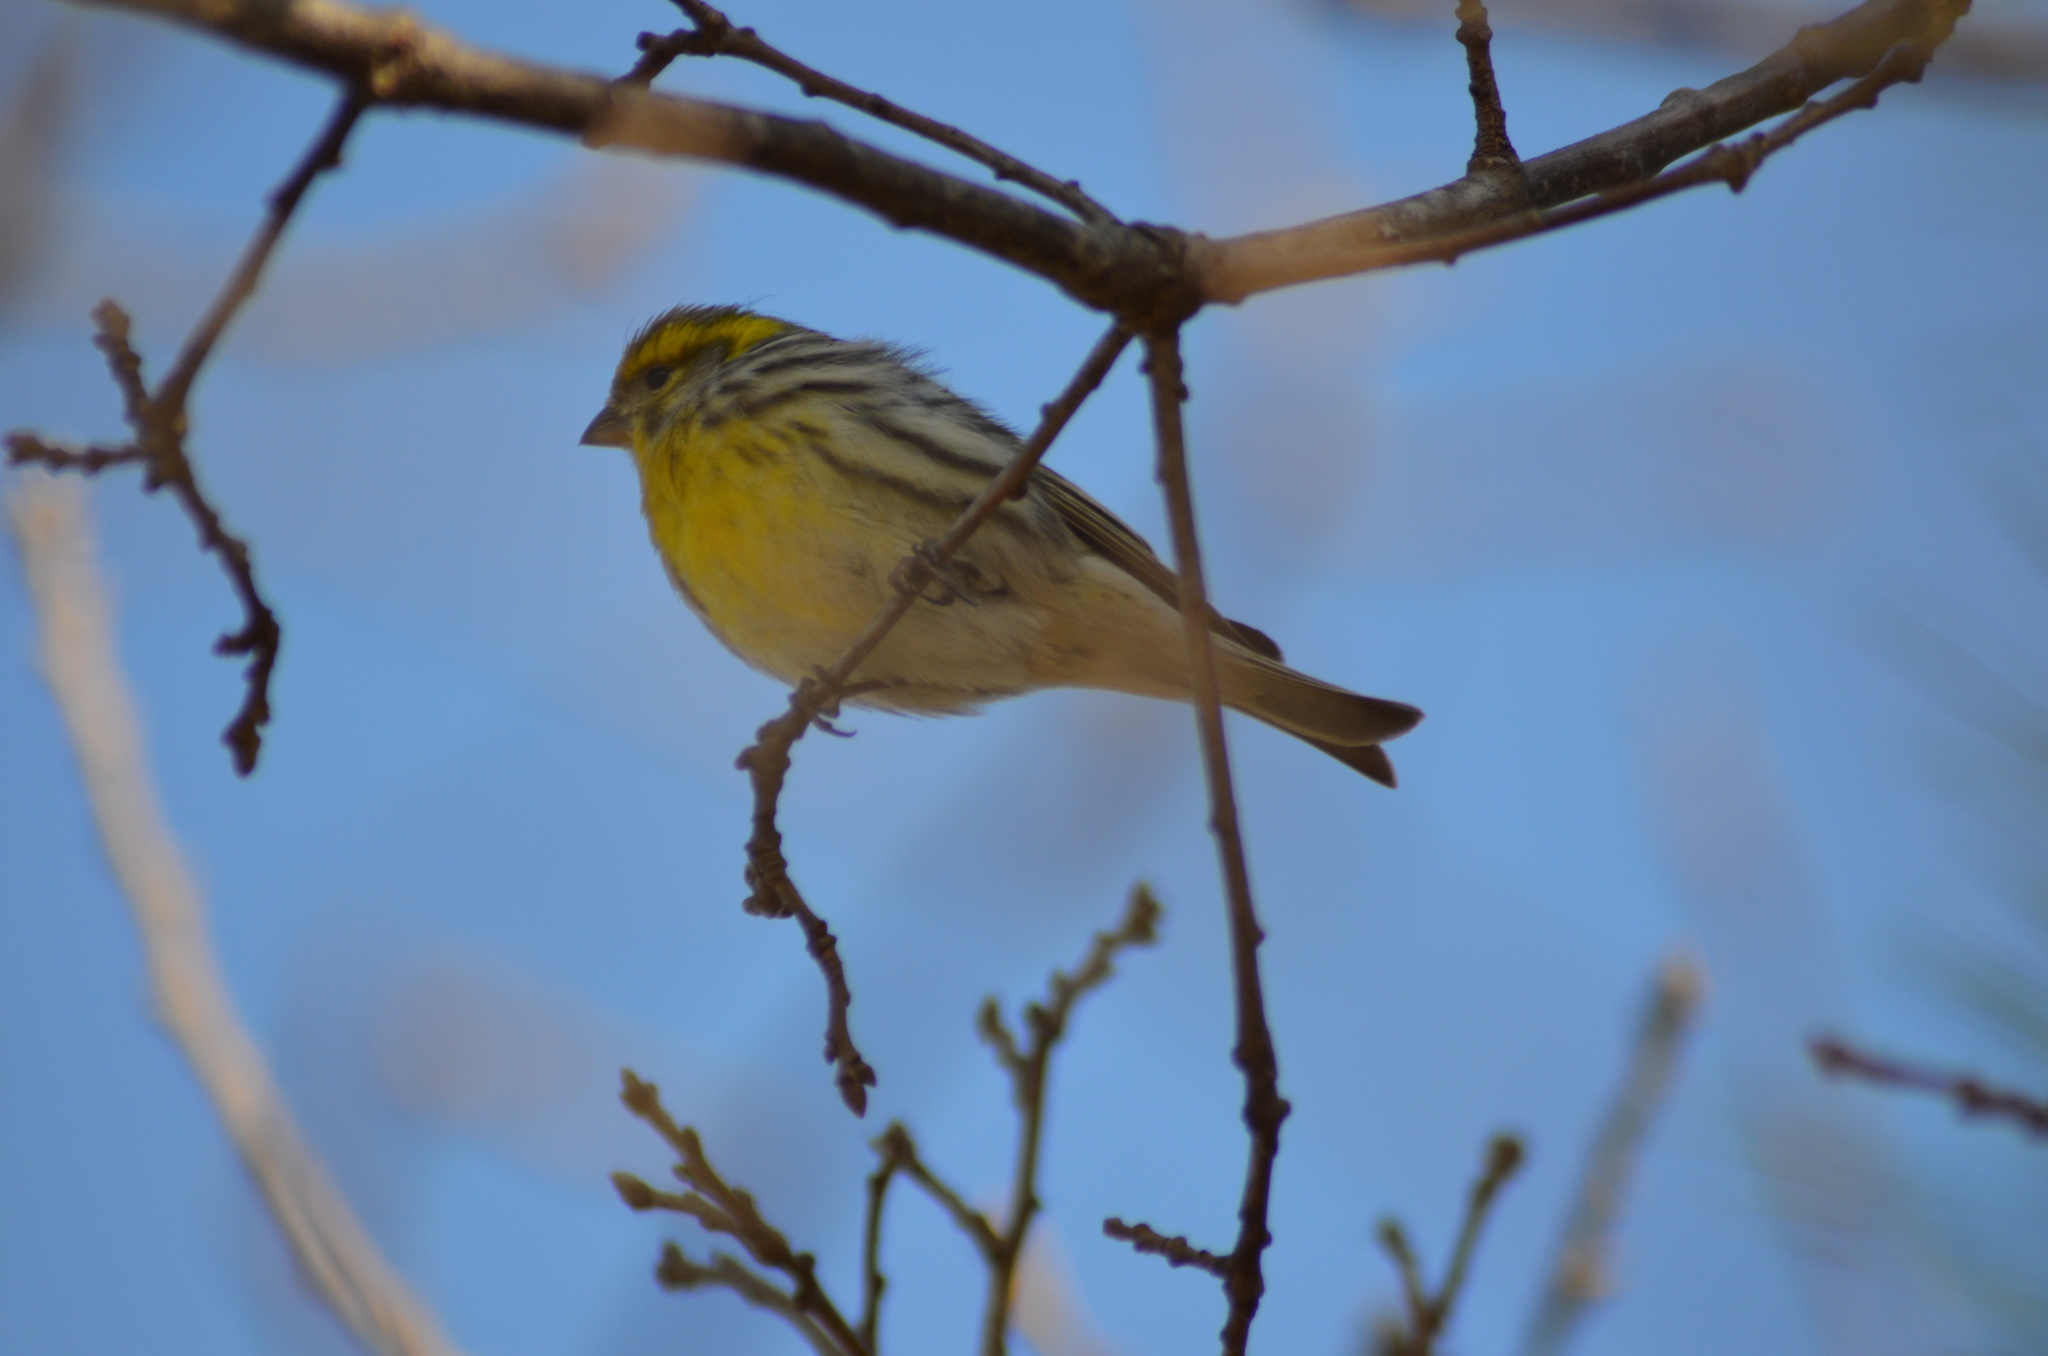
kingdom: Animalia
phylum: Chordata
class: Aves
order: Passeriformes
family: Fringillidae
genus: Serinus
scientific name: Serinus serinus
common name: European serin
